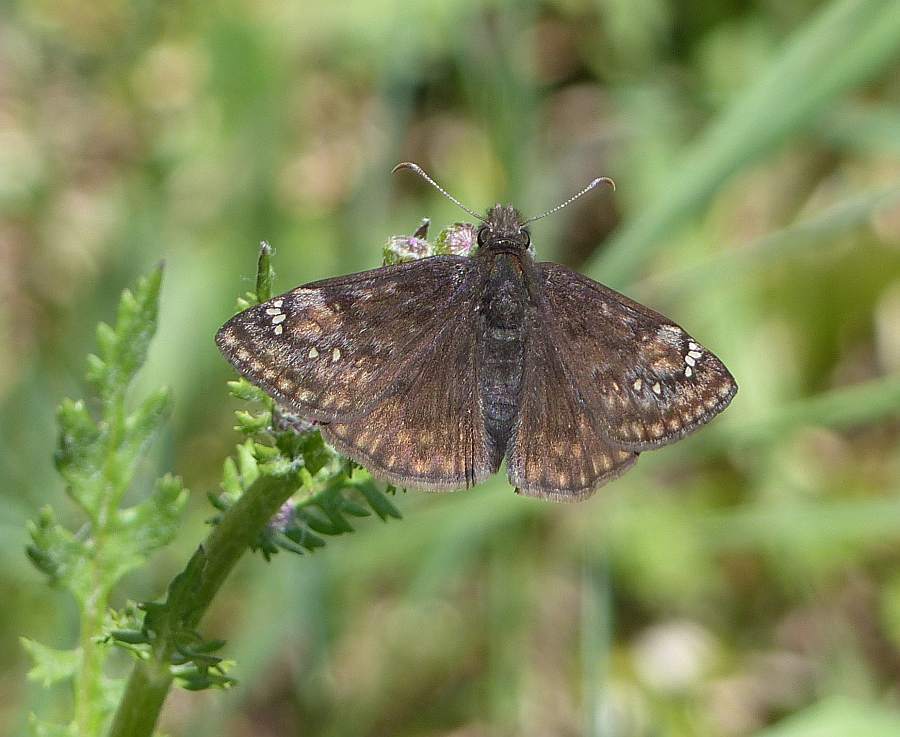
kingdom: Animalia
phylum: Arthropoda
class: Insecta
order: Lepidoptera
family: Hesperiidae
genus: Erynnis
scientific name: Erynnis juvenalis
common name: Juvenal's duskywing
